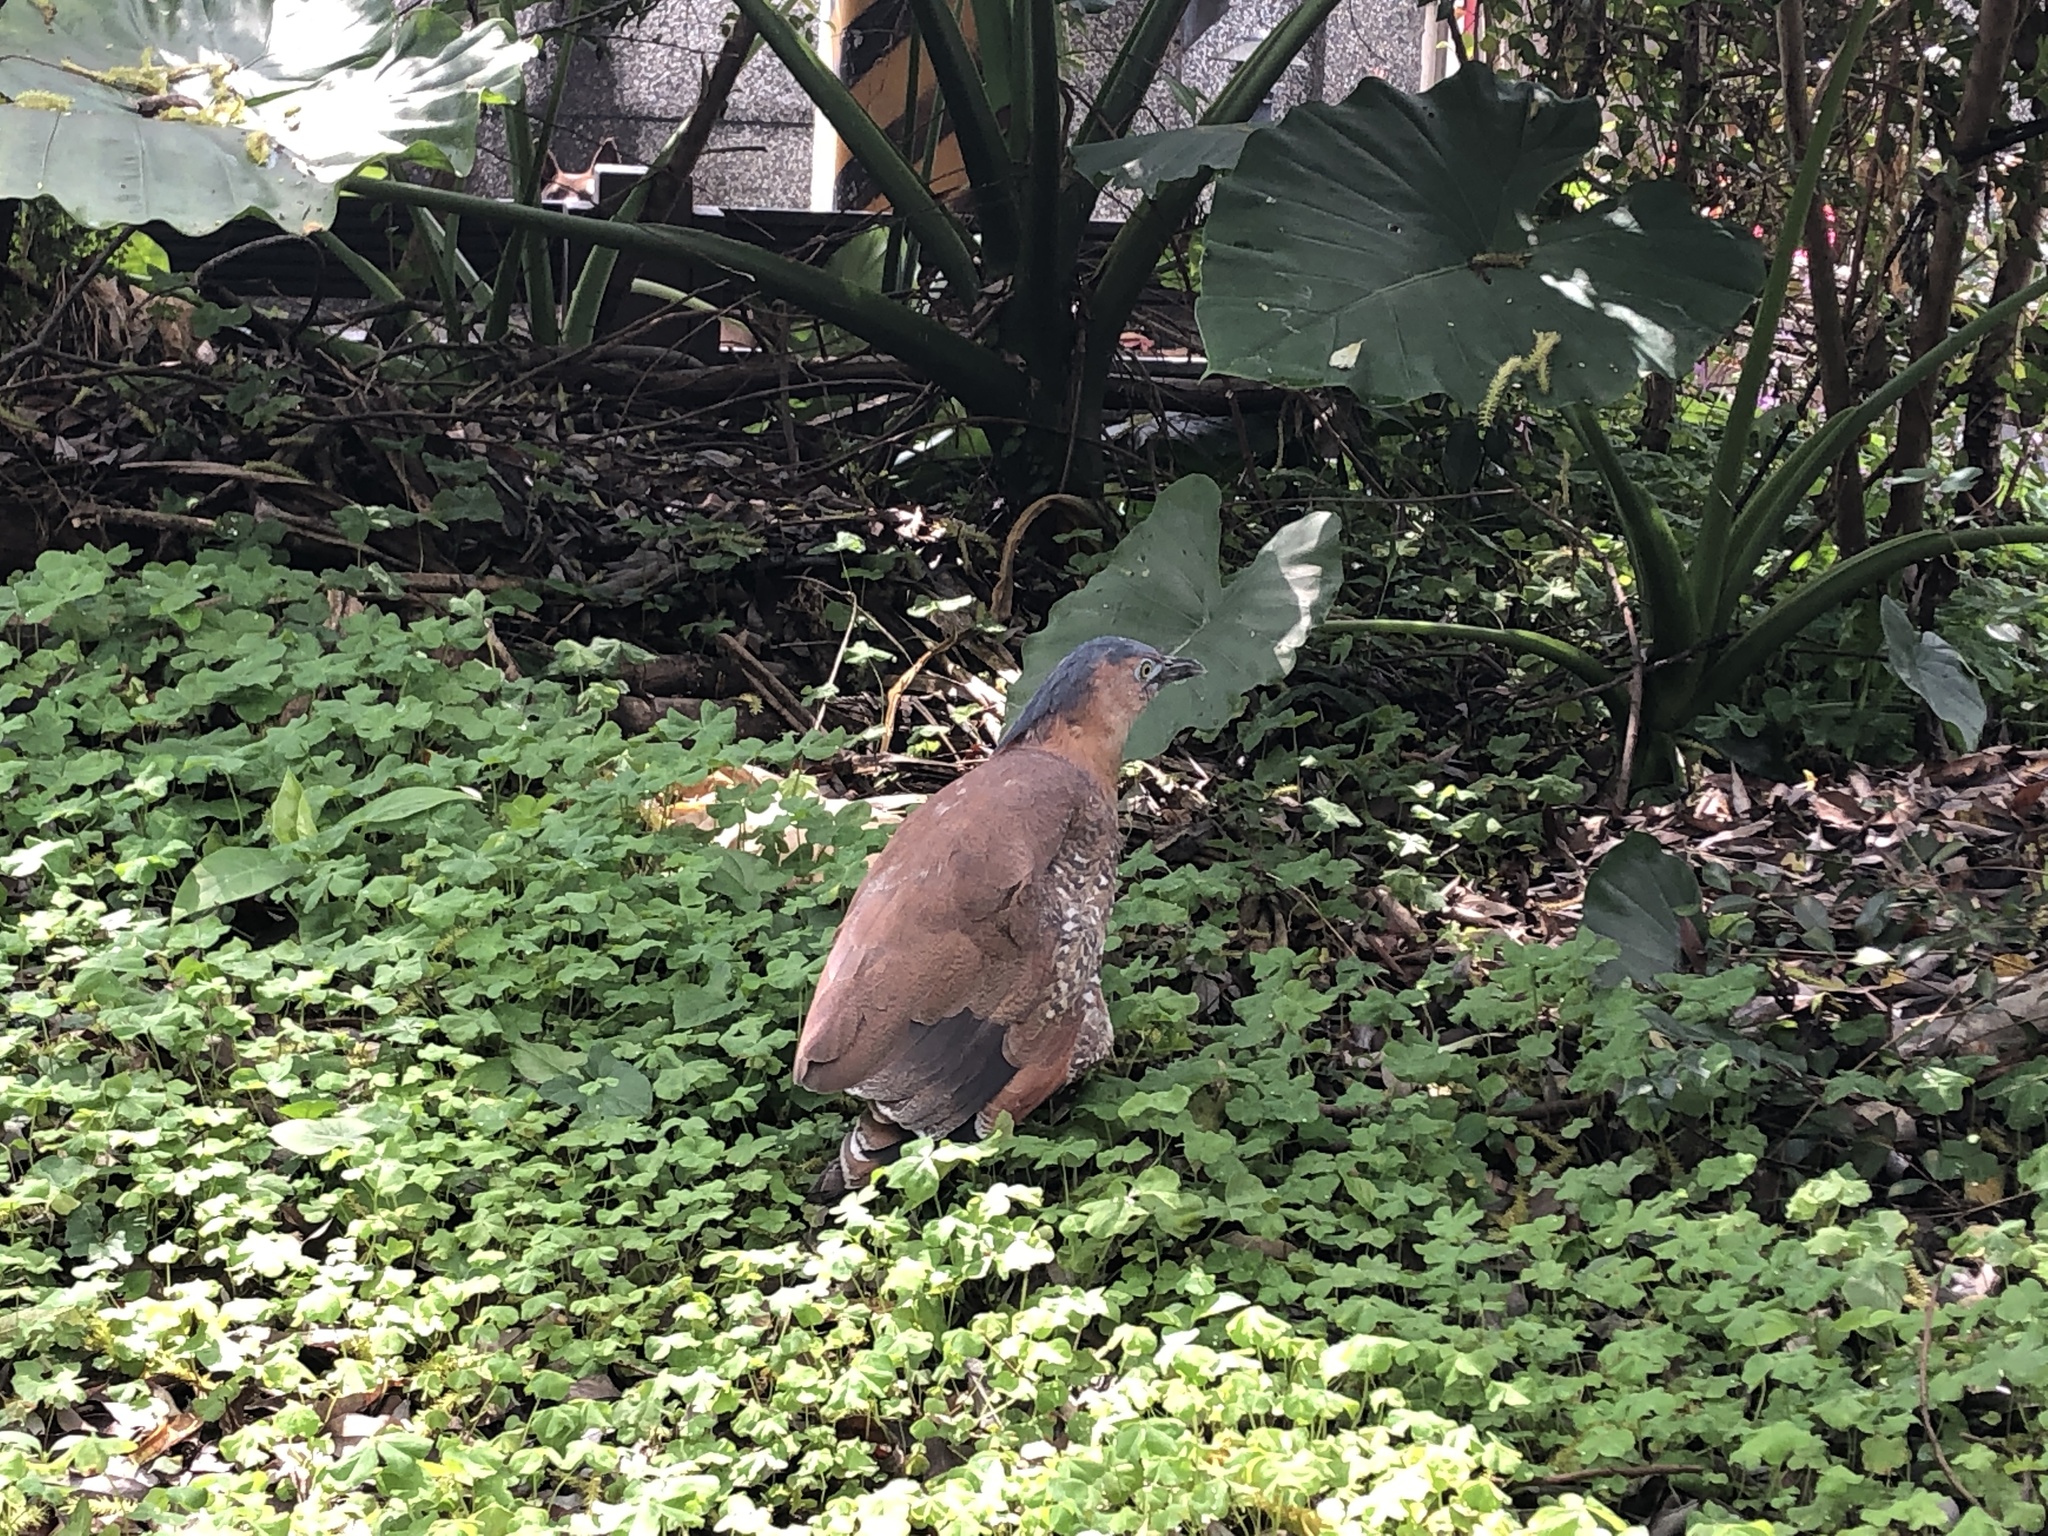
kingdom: Animalia
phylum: Chordata
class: Aves
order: Pelecaniformes
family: Ardeidae
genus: Gorsachius
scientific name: Gorsachius melanolophus
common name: Malayan night heron
